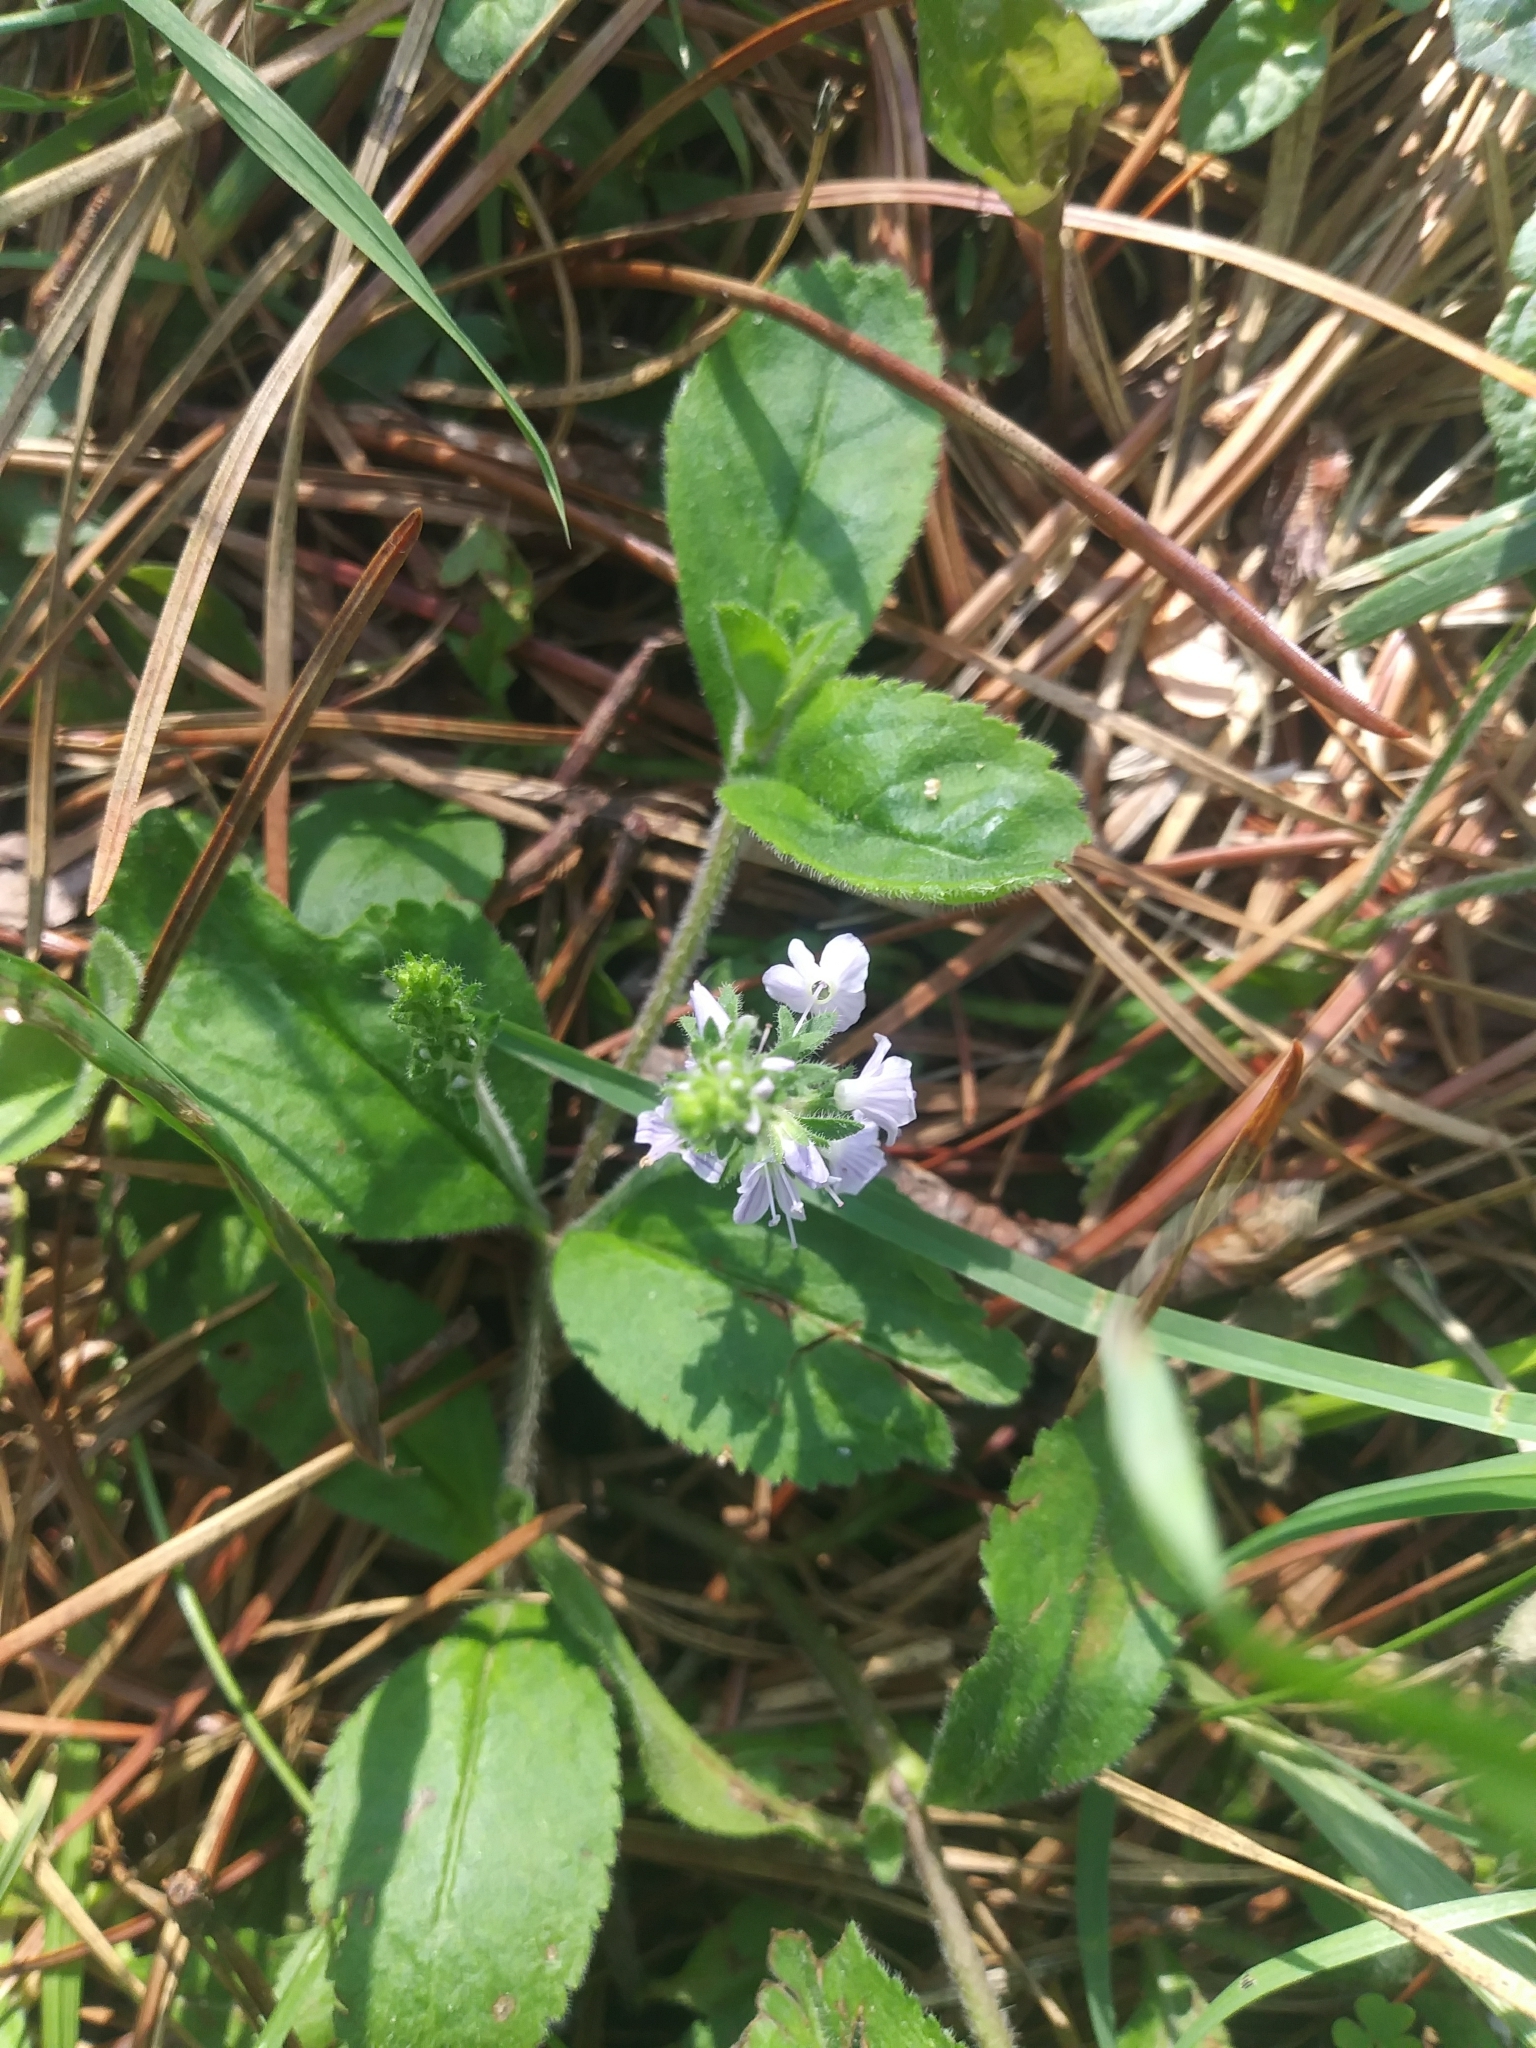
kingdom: Plantae
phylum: Tracheophyta
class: Magnoliopsida
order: Lamiales
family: Plantaginaceae
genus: Veronica
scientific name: Veronica officinalis
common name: Common speedwell
